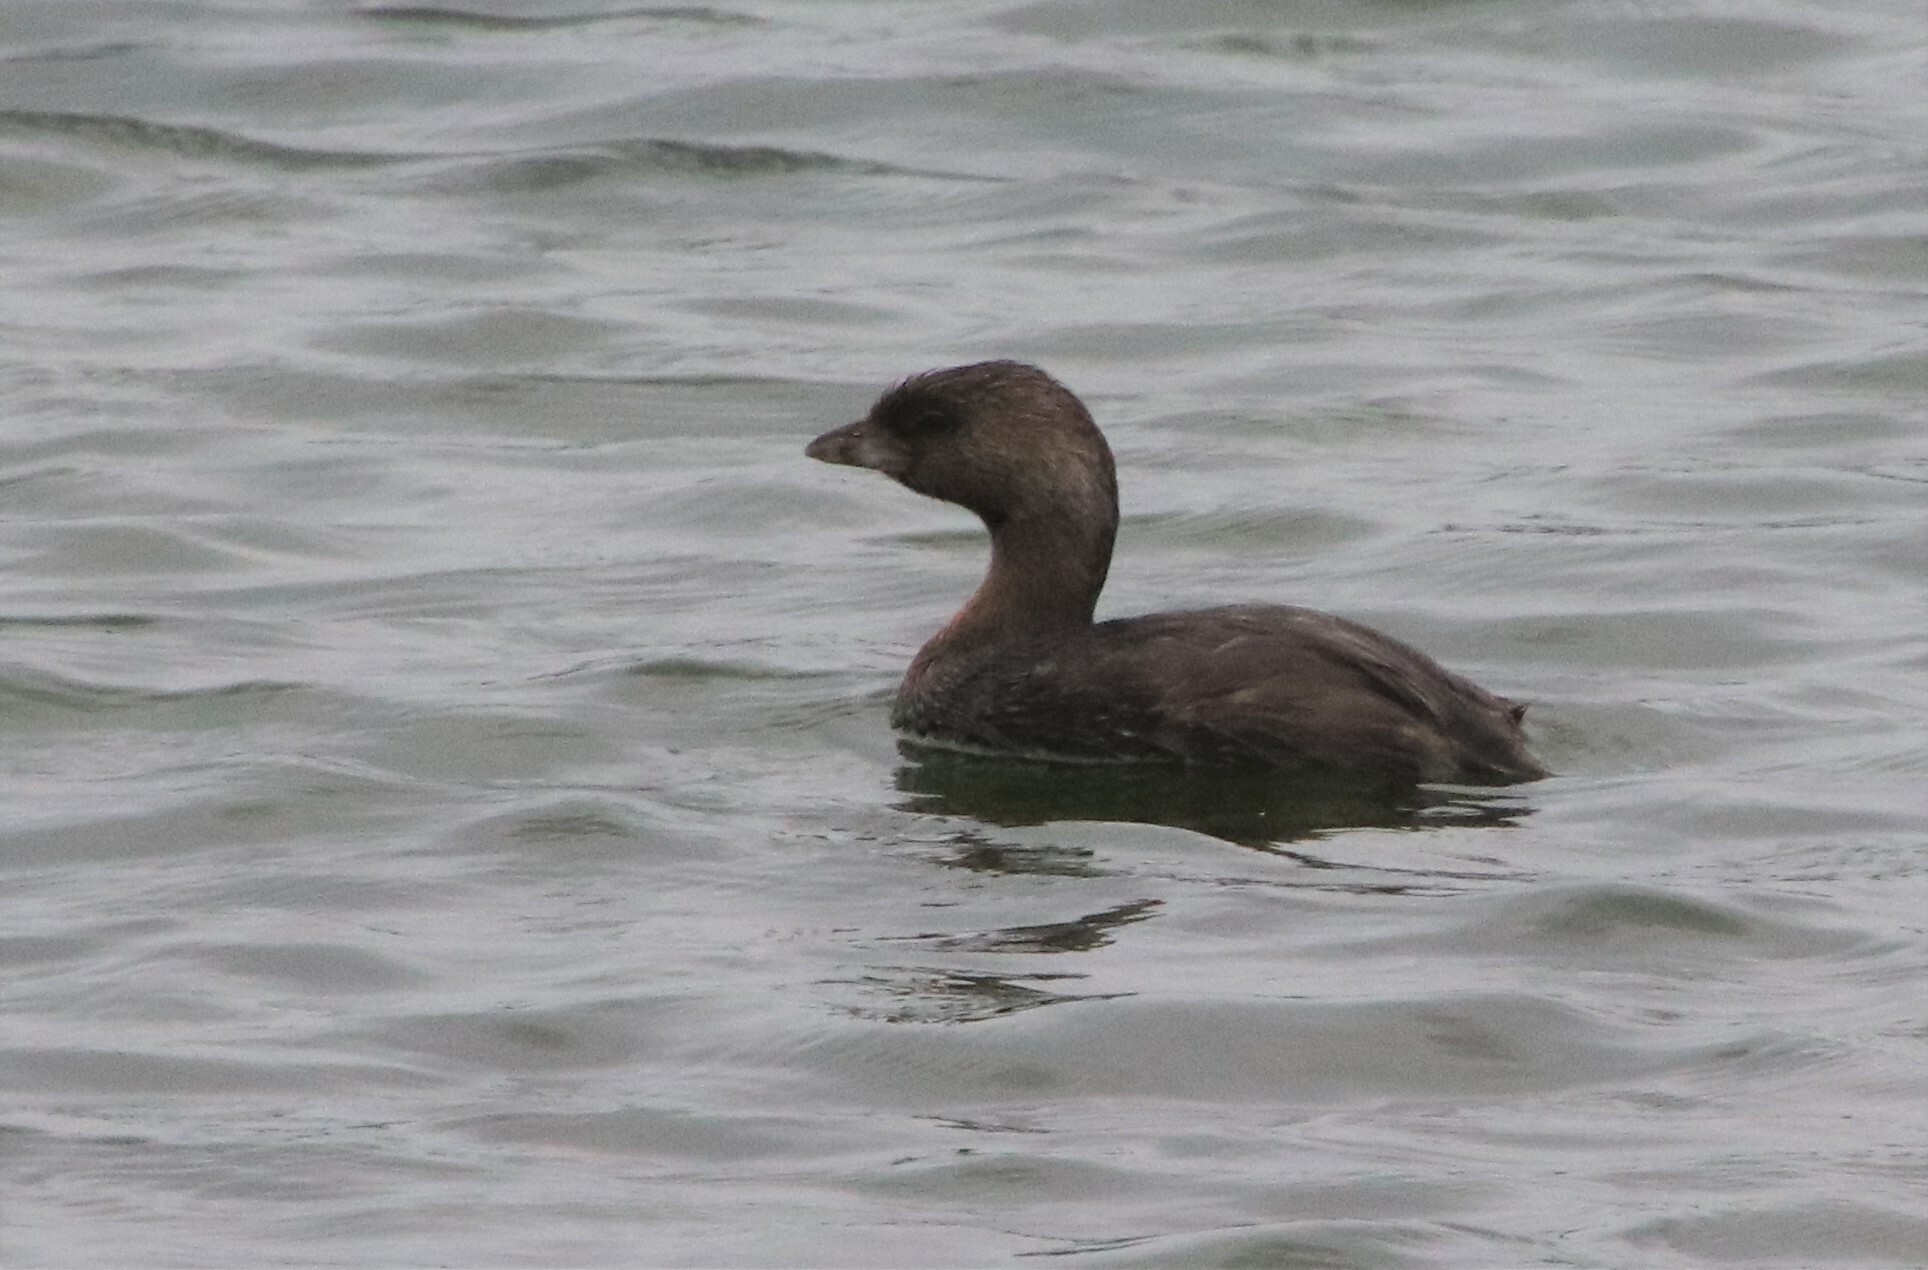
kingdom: Animalia
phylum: Chordata
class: Aves
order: Podicipediformes
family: Podicipedidae
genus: Podilymbus
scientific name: Podilymbus podiceps
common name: Pied-billed grebe
